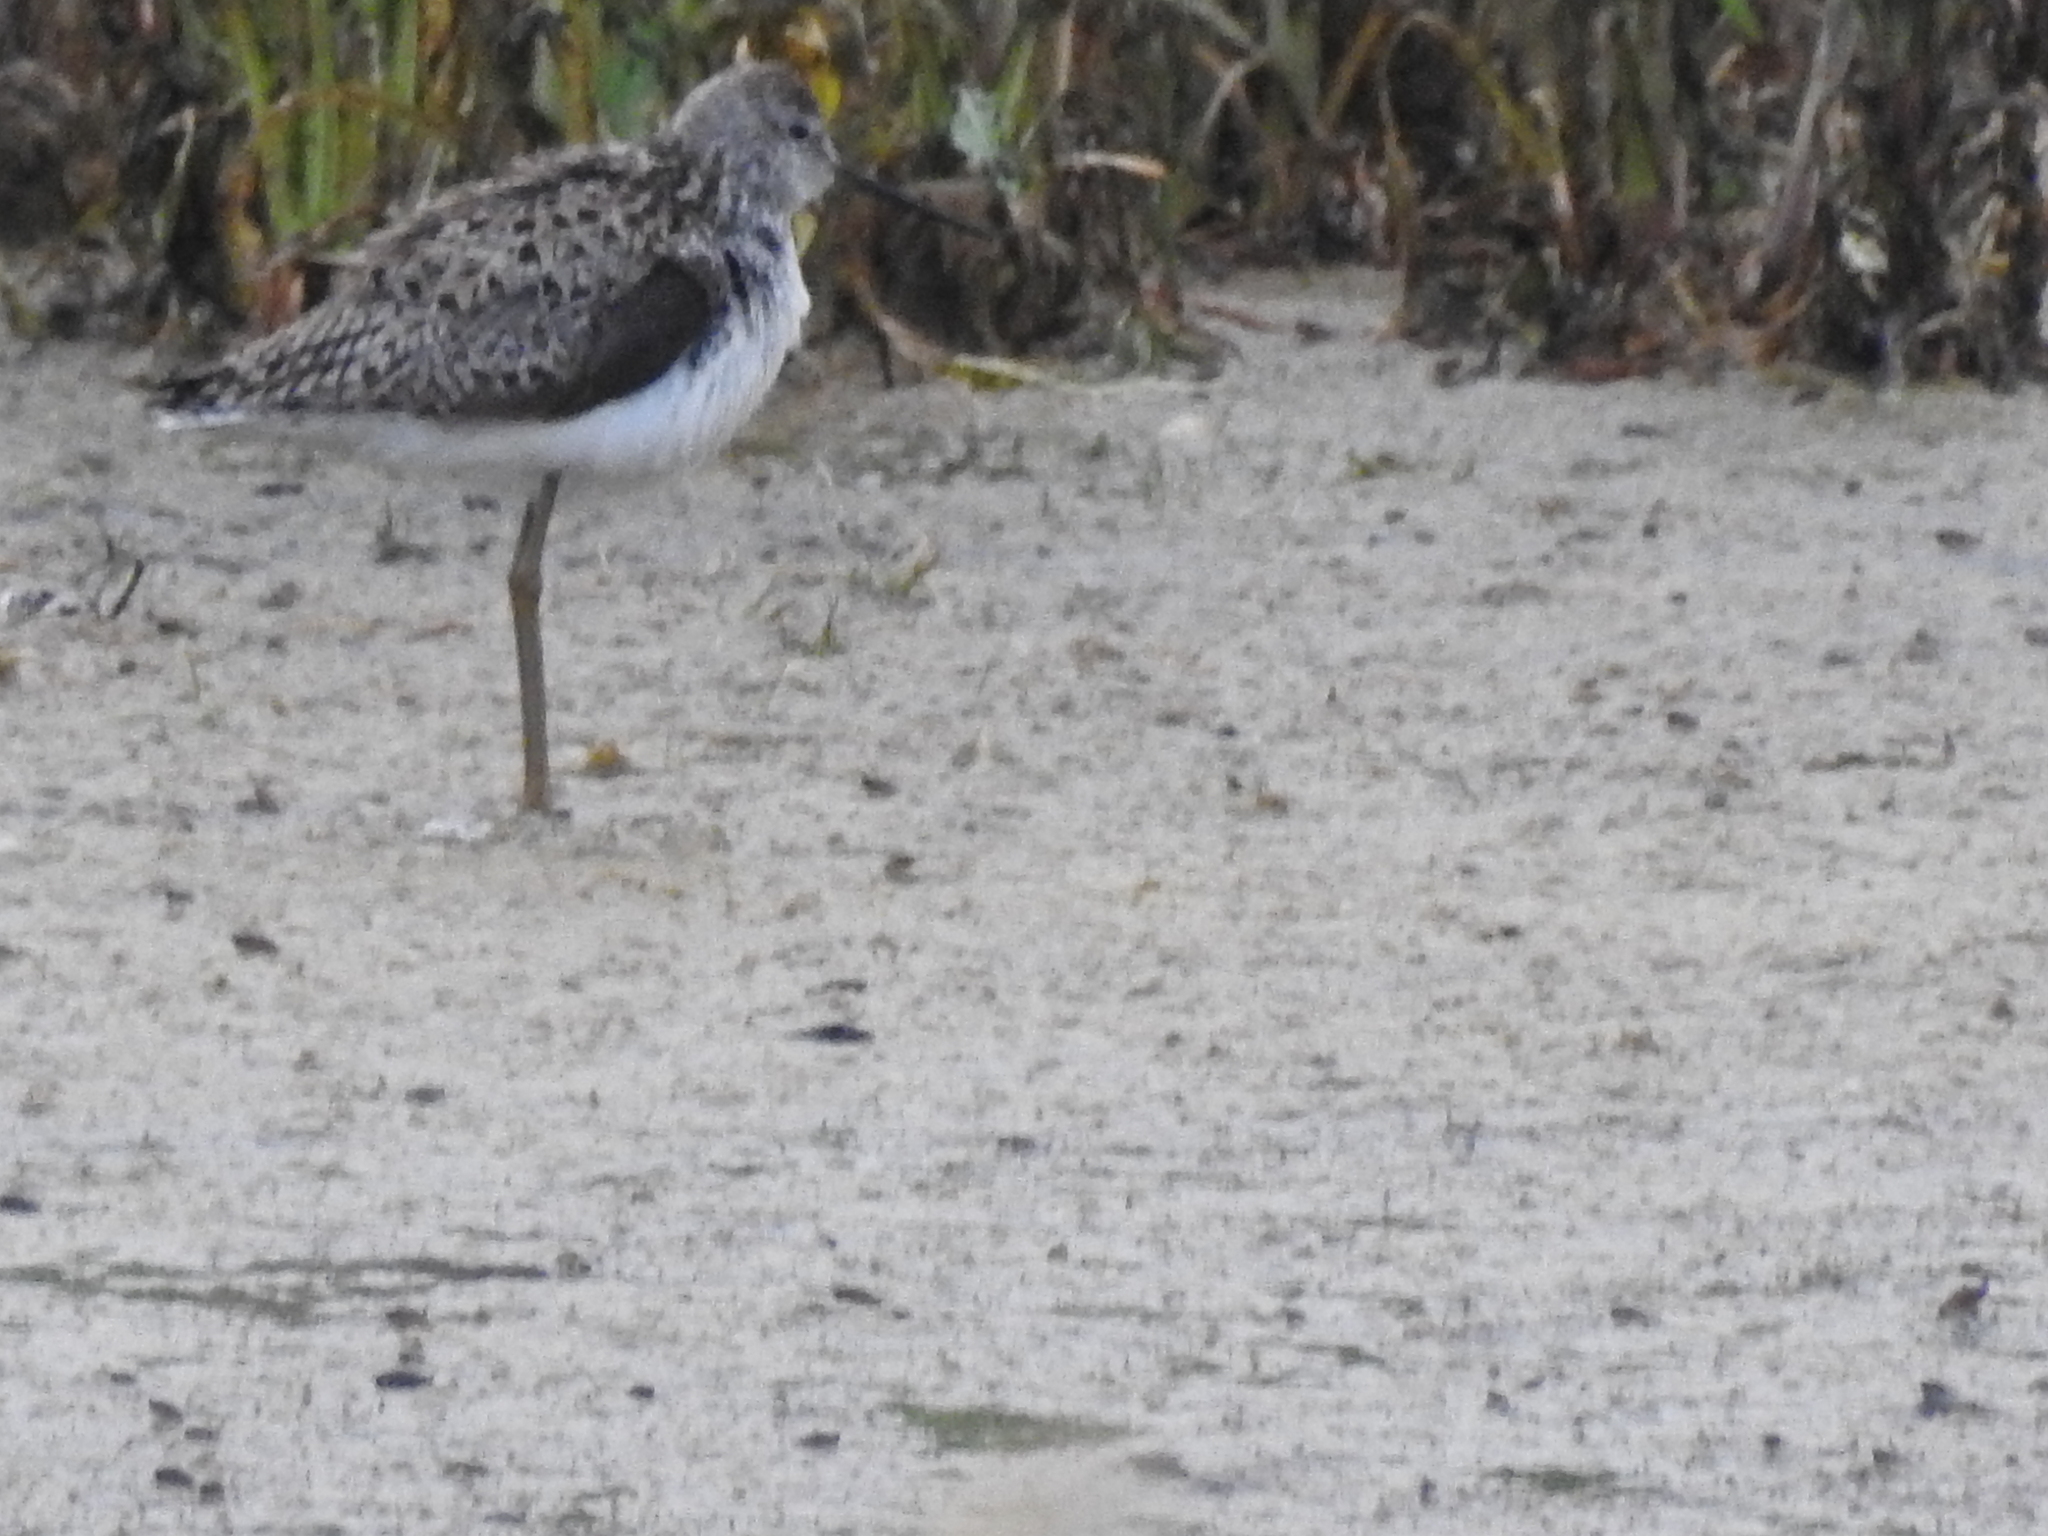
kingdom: Animalia
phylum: Chordata
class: Aves
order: Charadriiformes
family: Scolopacidae
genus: Tringa
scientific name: Tringa stagnatilis
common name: Marsh sandpiper
